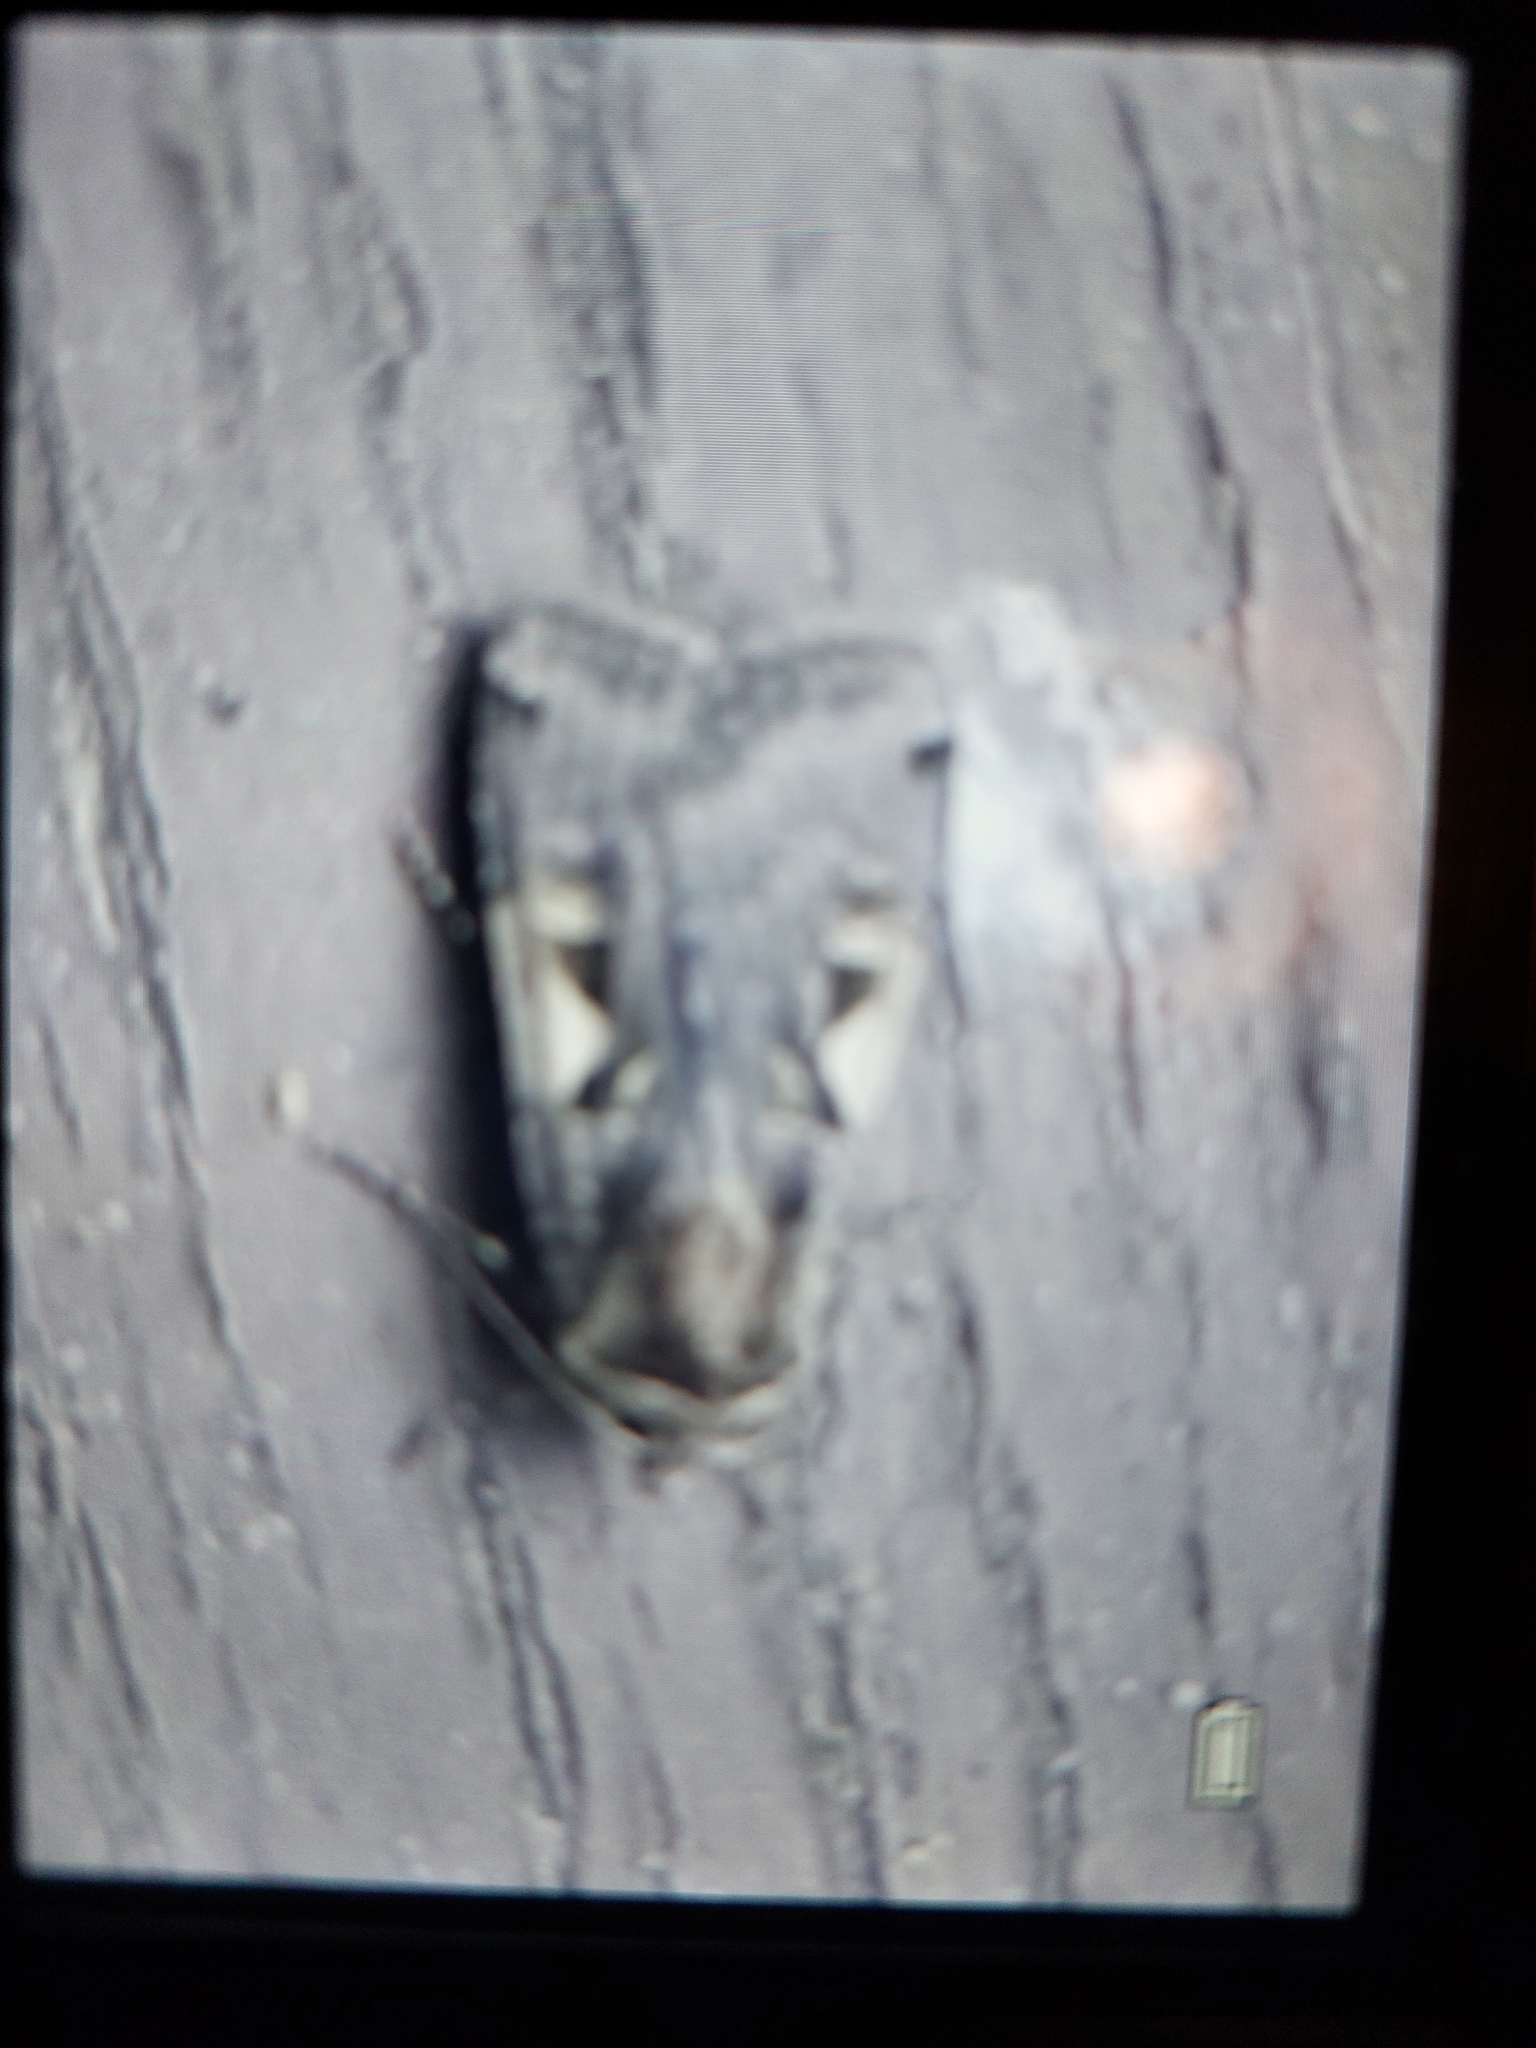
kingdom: Animalia
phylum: Arthropoda
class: Insecta
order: Lepidoptera
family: Noctuidae
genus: Xestia
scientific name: Xestia c-nigrum
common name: Setaceous hebrew character
